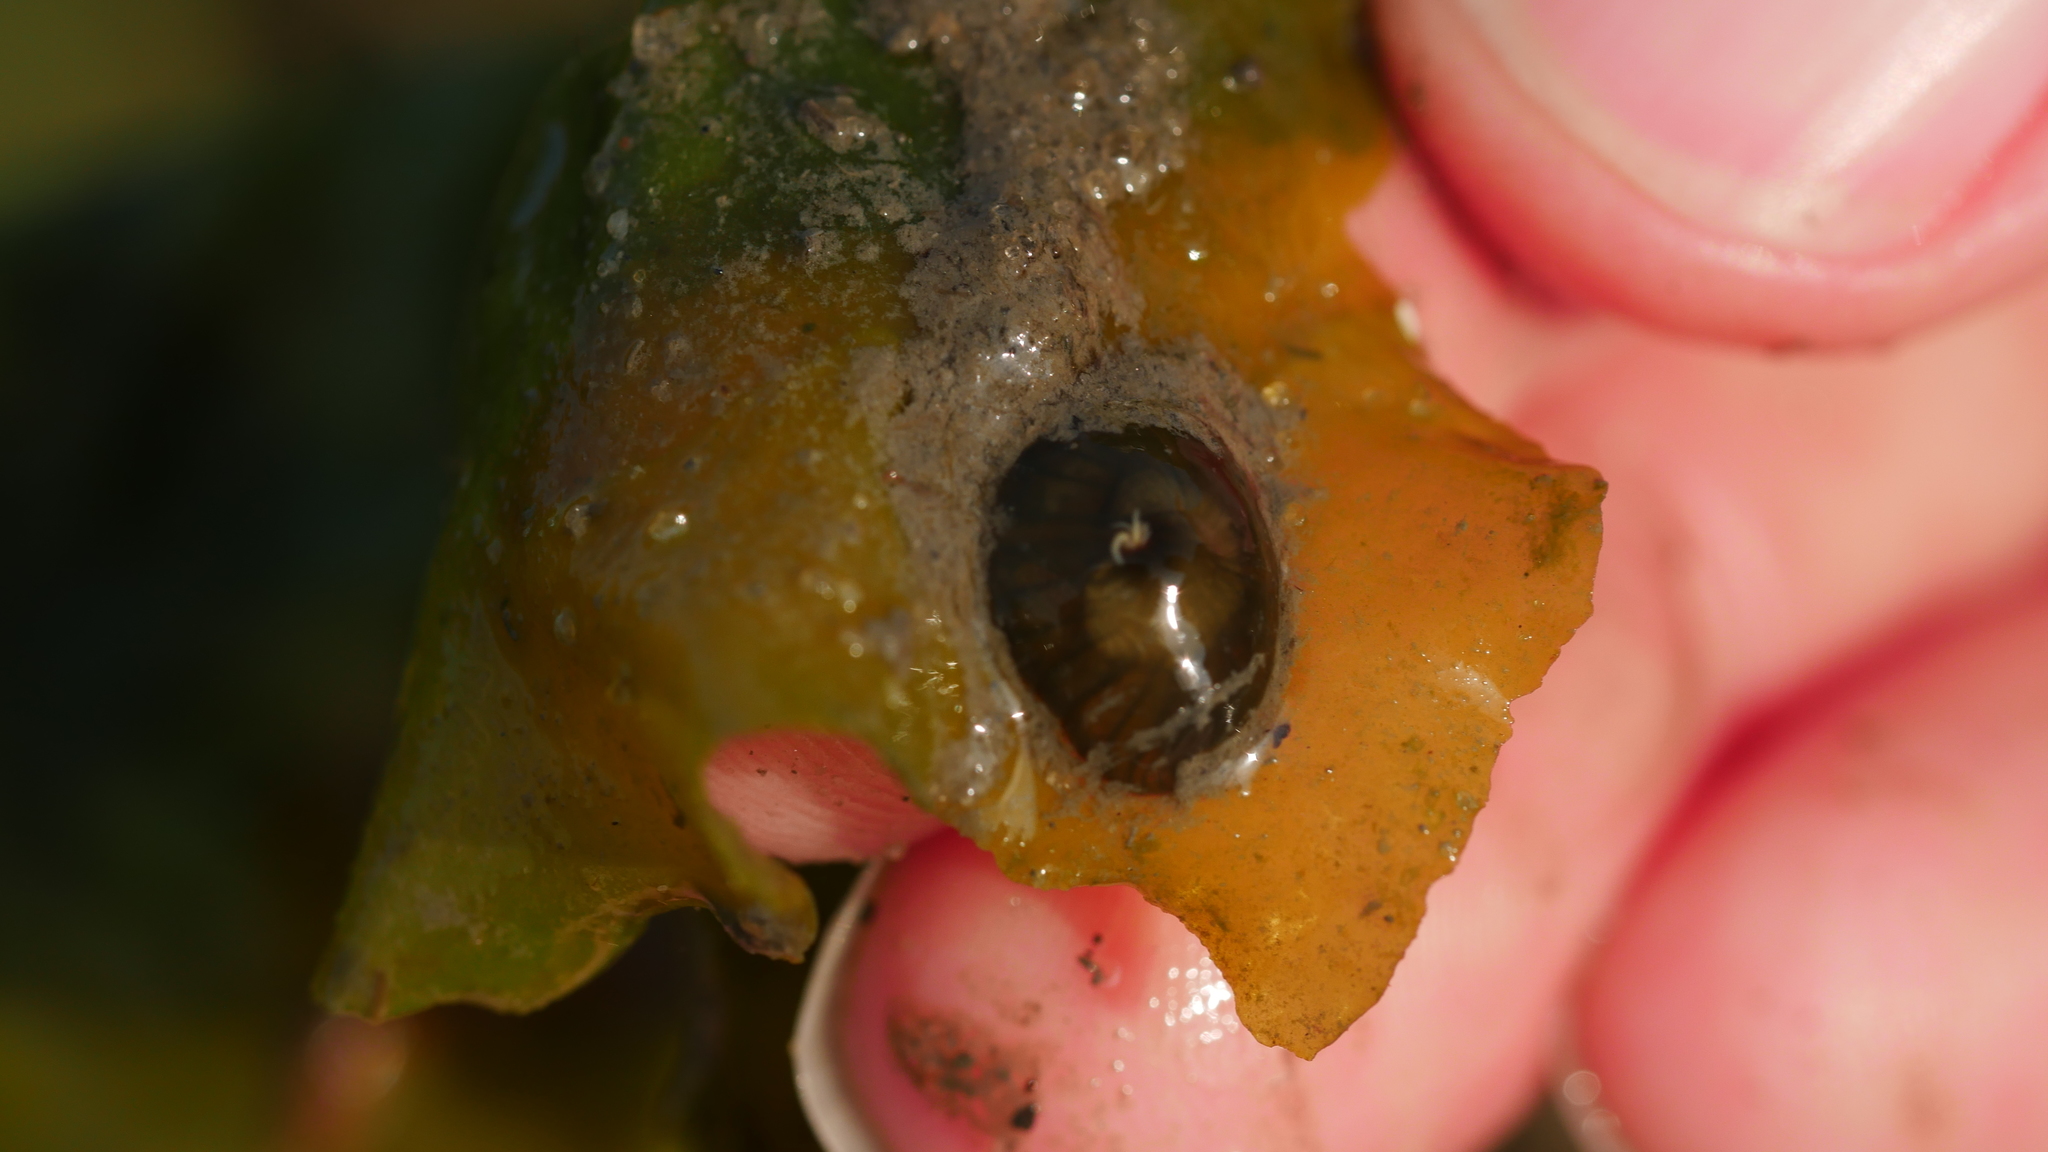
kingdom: Animalia
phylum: Cnidaria
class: Anthozoa
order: Actiniaria
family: Diadumenidae
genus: Diadumene
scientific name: Diadumene lineata
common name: Orange-striped anemone
